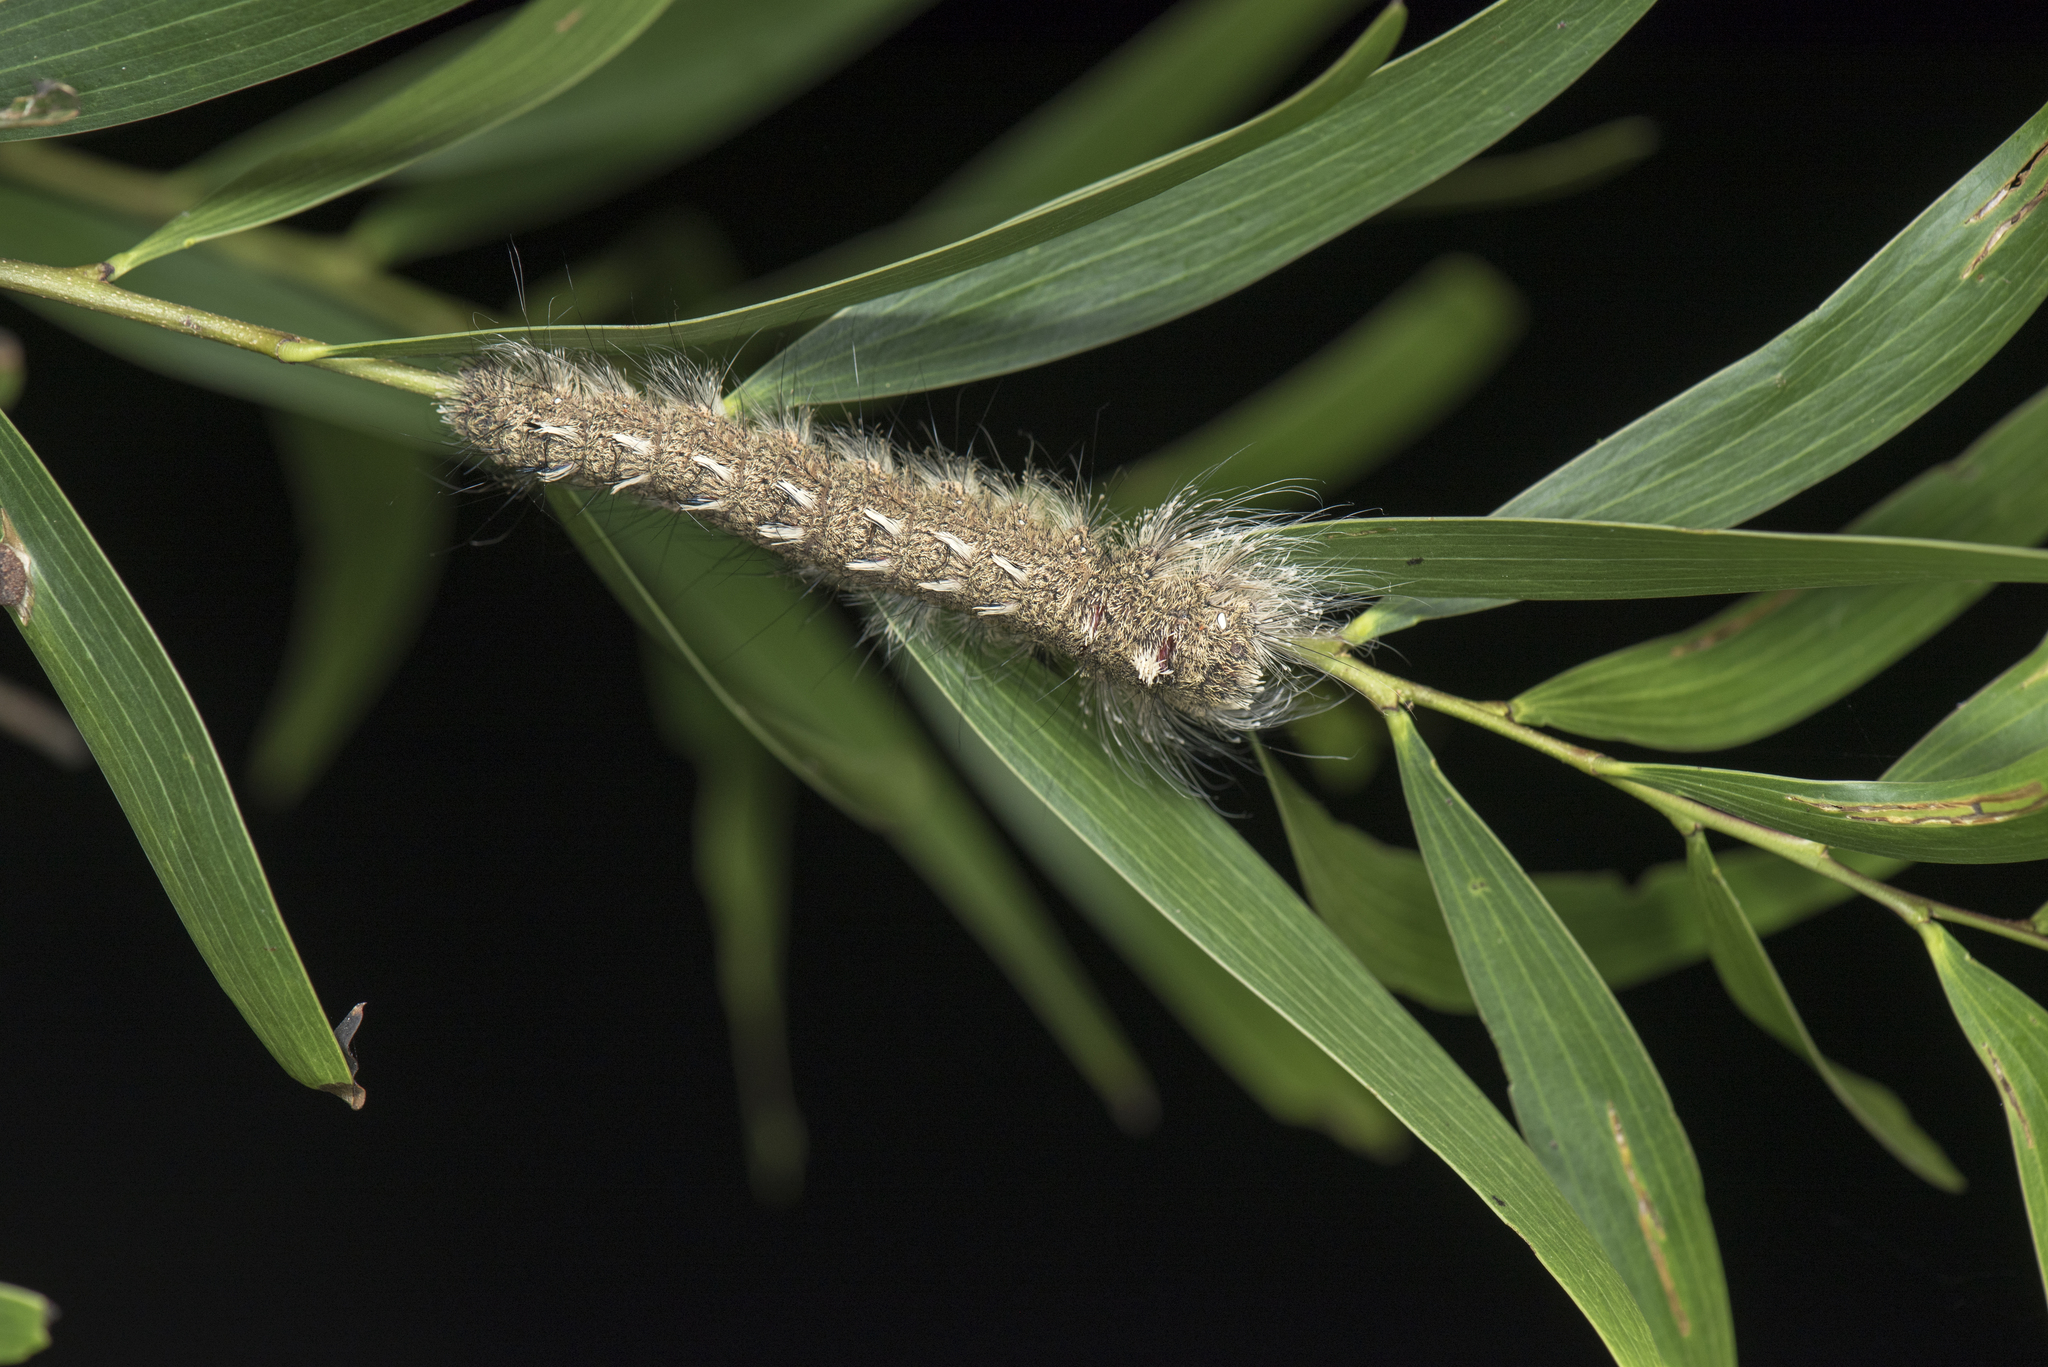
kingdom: Animalia
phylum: Arthropoda
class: Insecta
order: Lepidoptera
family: Lasiocampidae
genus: Lebeda
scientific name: Lebeda nobilis
